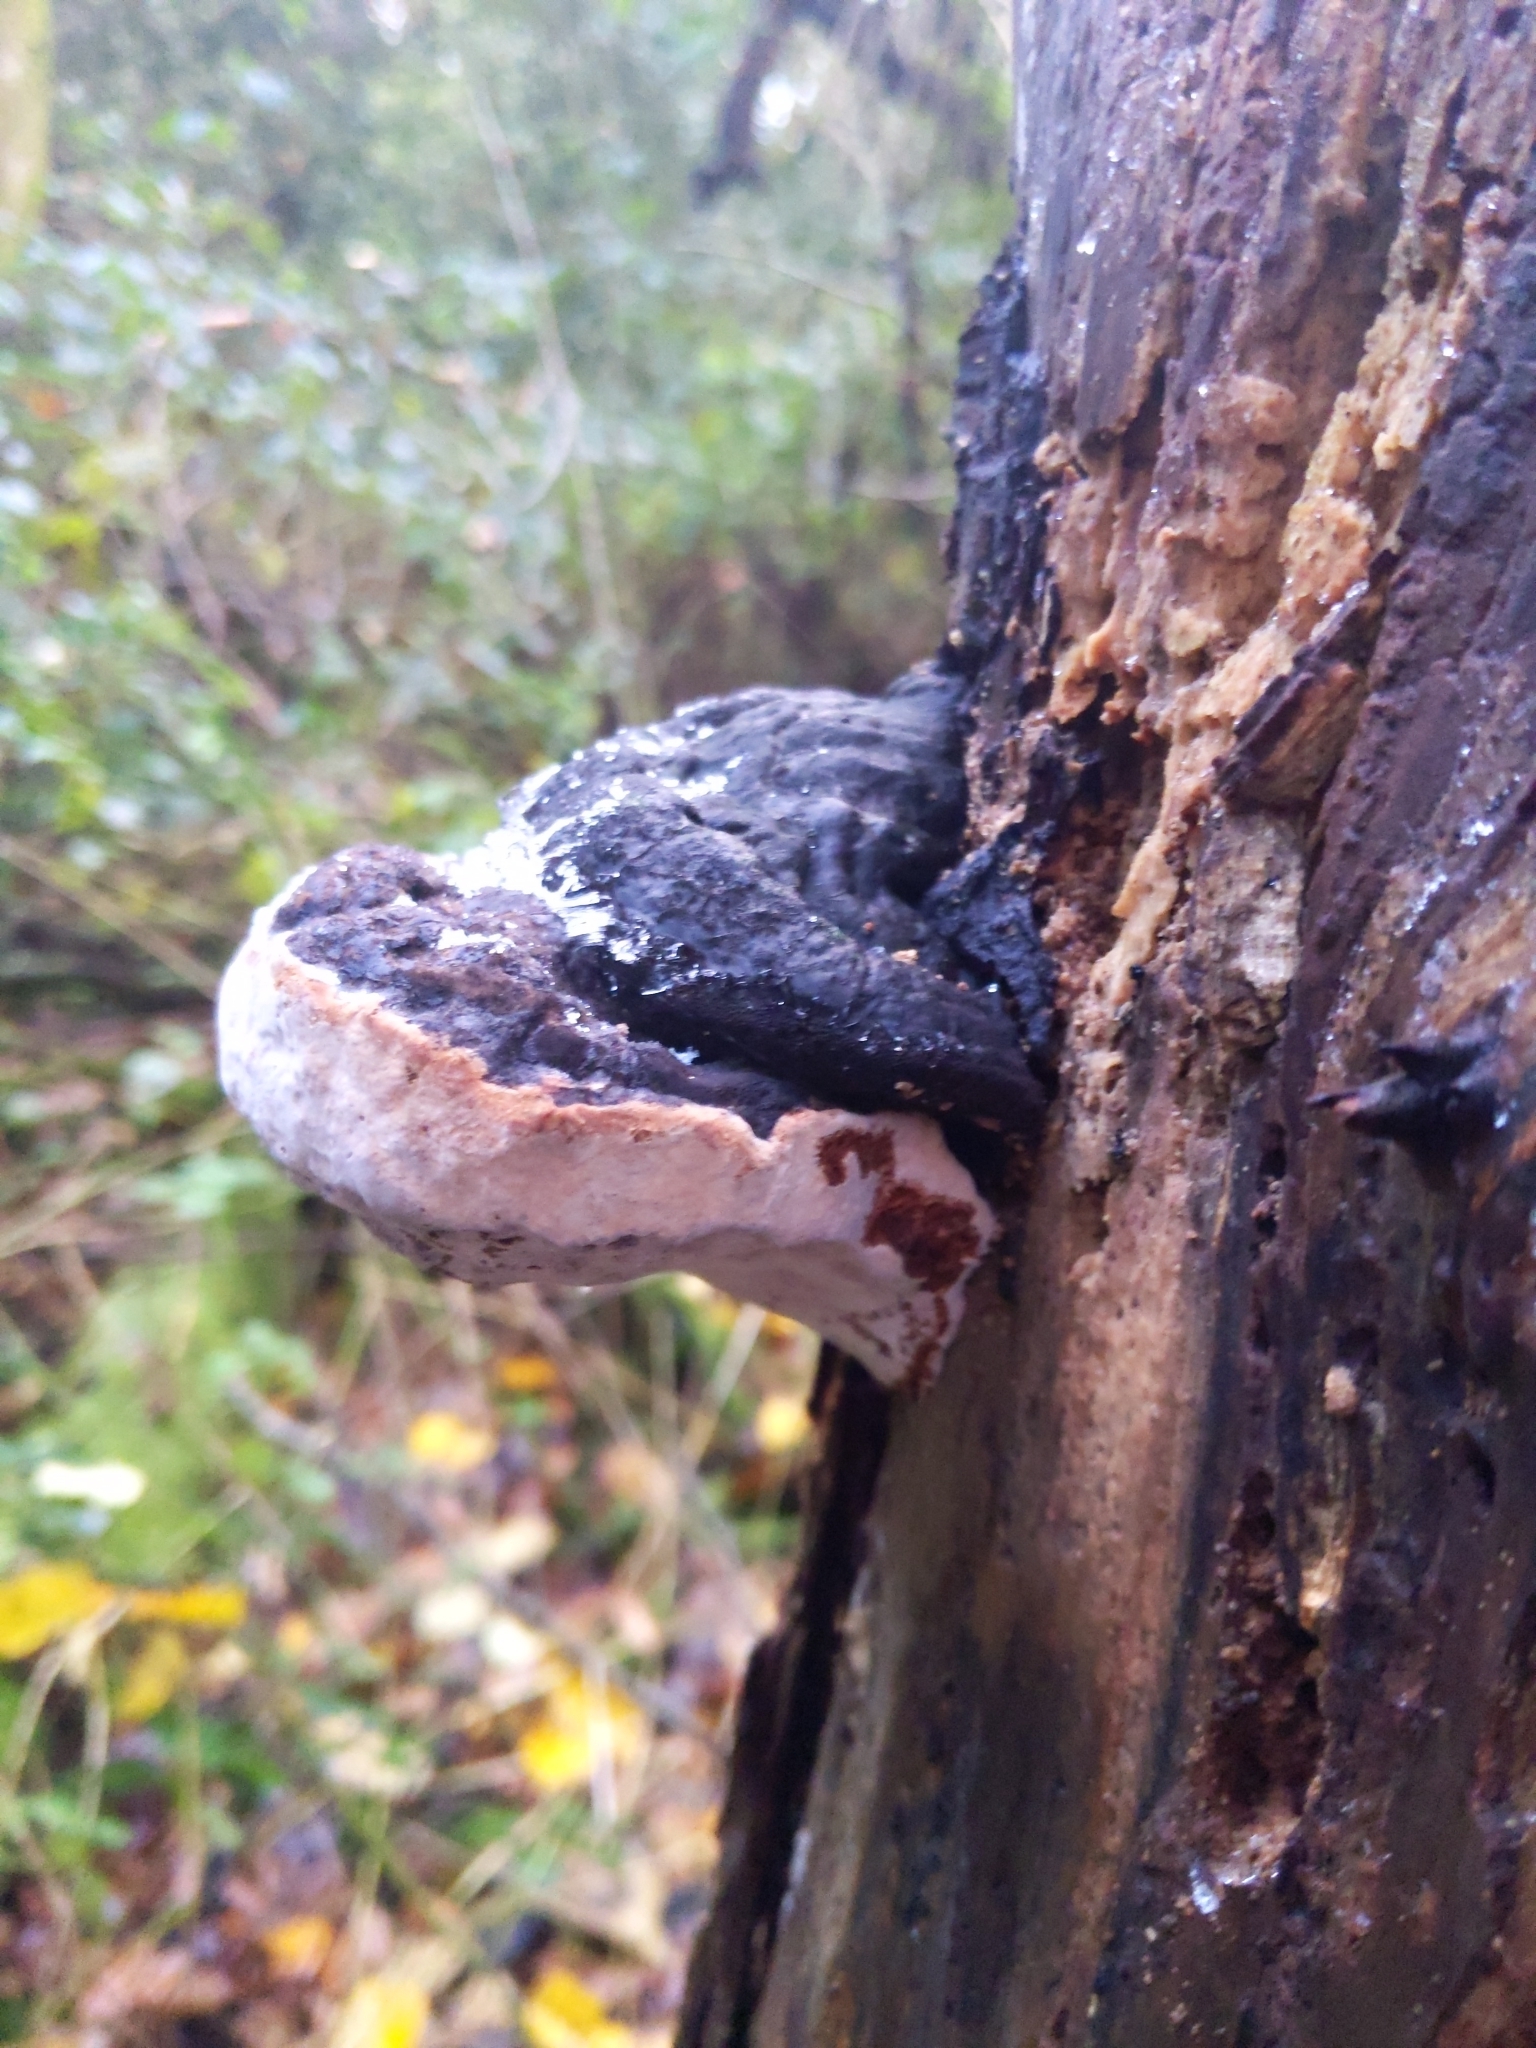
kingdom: Fungi
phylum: Basidiomycota
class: Agaricomycetes
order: Polyporales
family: Fomitopsidaceae
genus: Fomitopsis
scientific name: Fomitopsis pinicola
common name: Red-belted bracket
